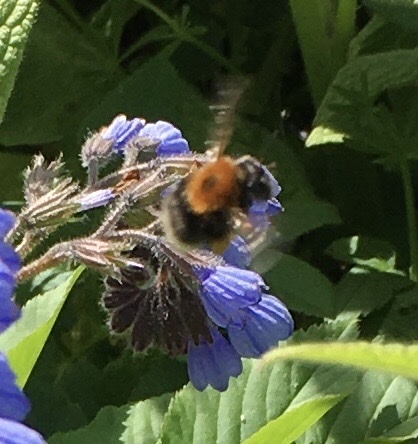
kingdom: Animalia
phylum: Arthropoda
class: Insecta
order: Hymenoptera
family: Apidae
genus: Bombus
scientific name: Bombus hypnorum
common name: New garden bumblebee
